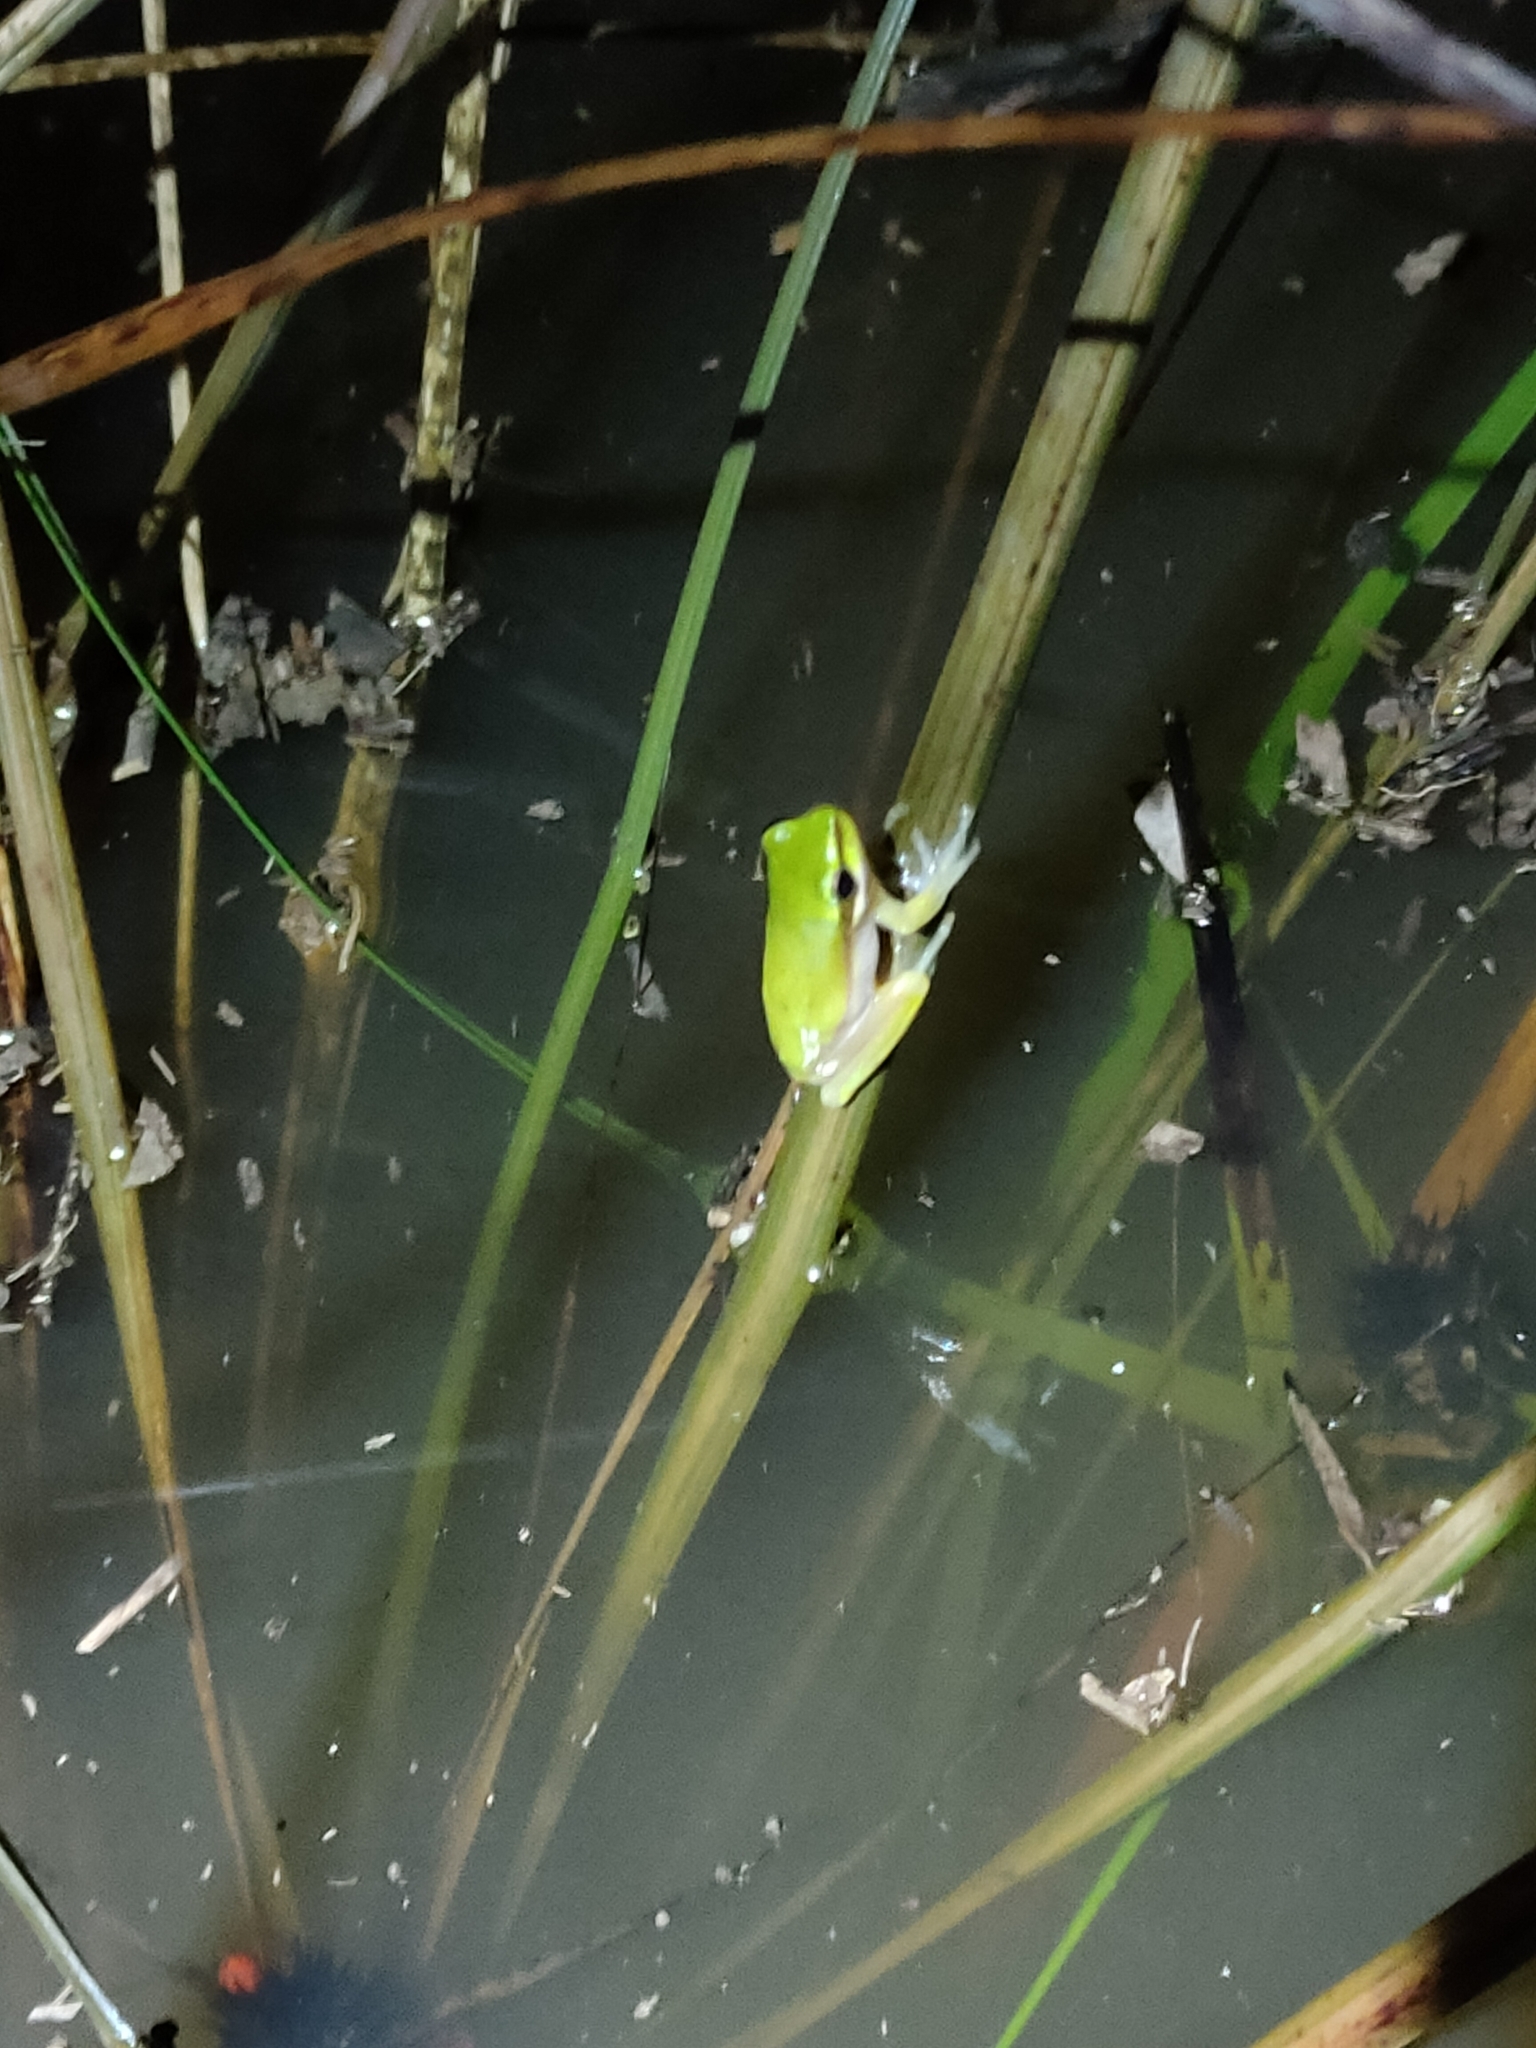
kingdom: Animalia
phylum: Chordata
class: Amphibia
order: Anura
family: Pelodryadidae
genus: Litoria
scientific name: Litoria fallax
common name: Eastern dwarf treefrog
